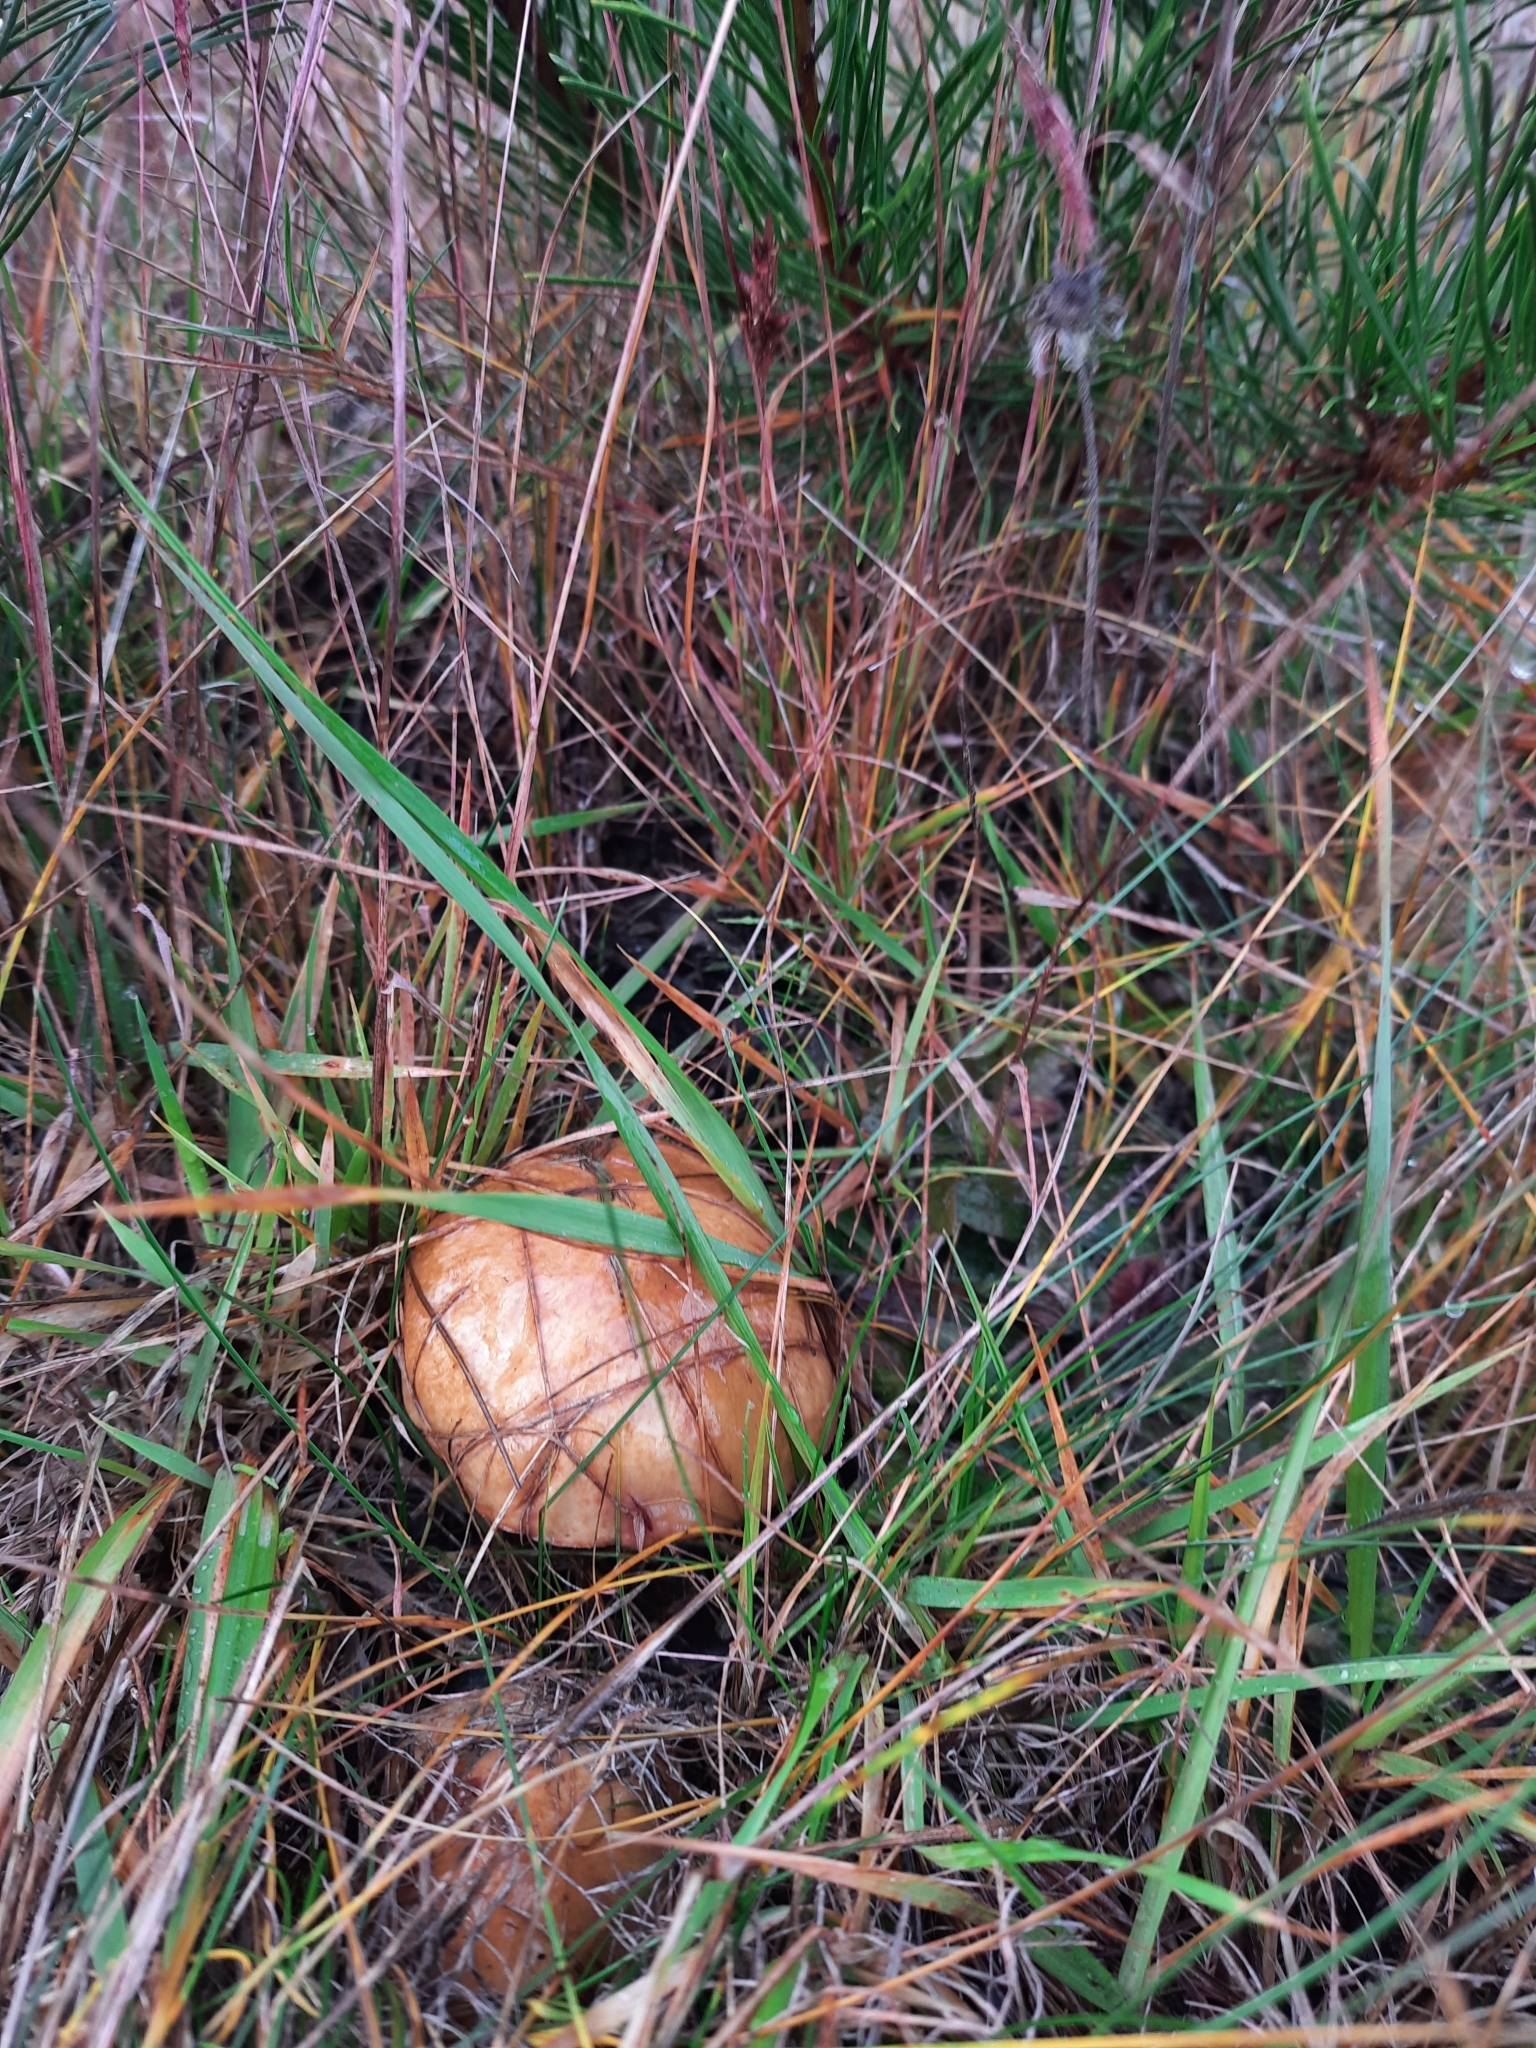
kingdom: Fungi
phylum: Basidiomycota
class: Agaricomycetes
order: Boletales
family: Suillaceae
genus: Suillus
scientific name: Suillus luteus
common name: Slippery jack
